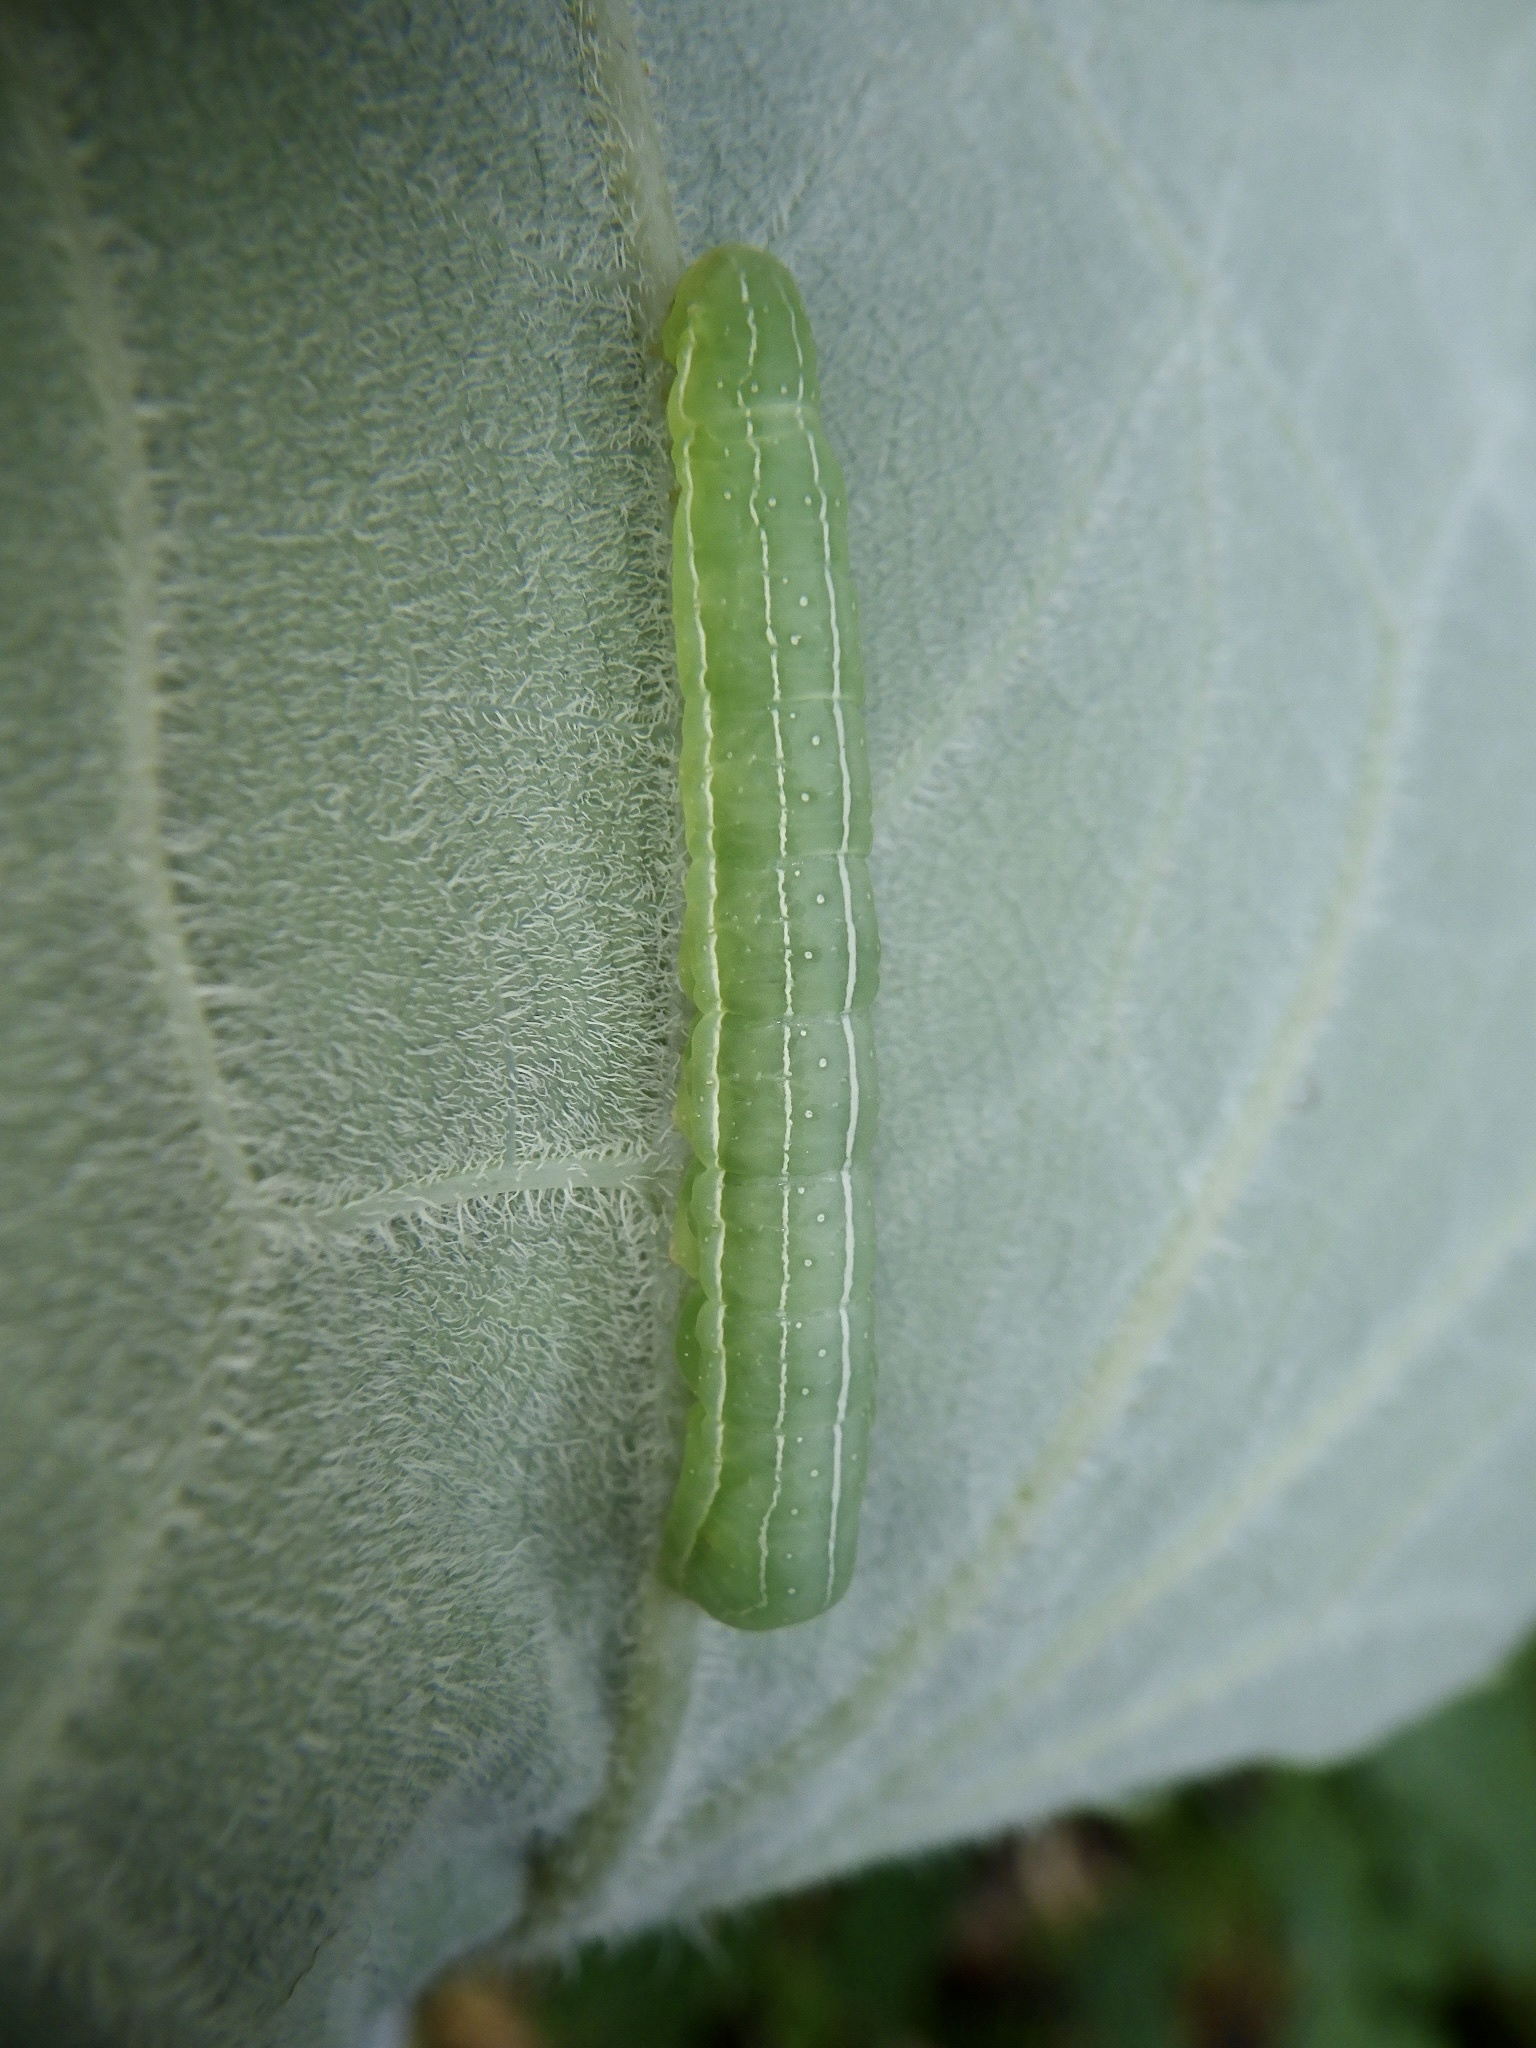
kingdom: Animalia
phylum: Arthropoda
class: Insecta
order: Lepidoptera
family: Noctuidae
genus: Xylena
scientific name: Xylena formosa
